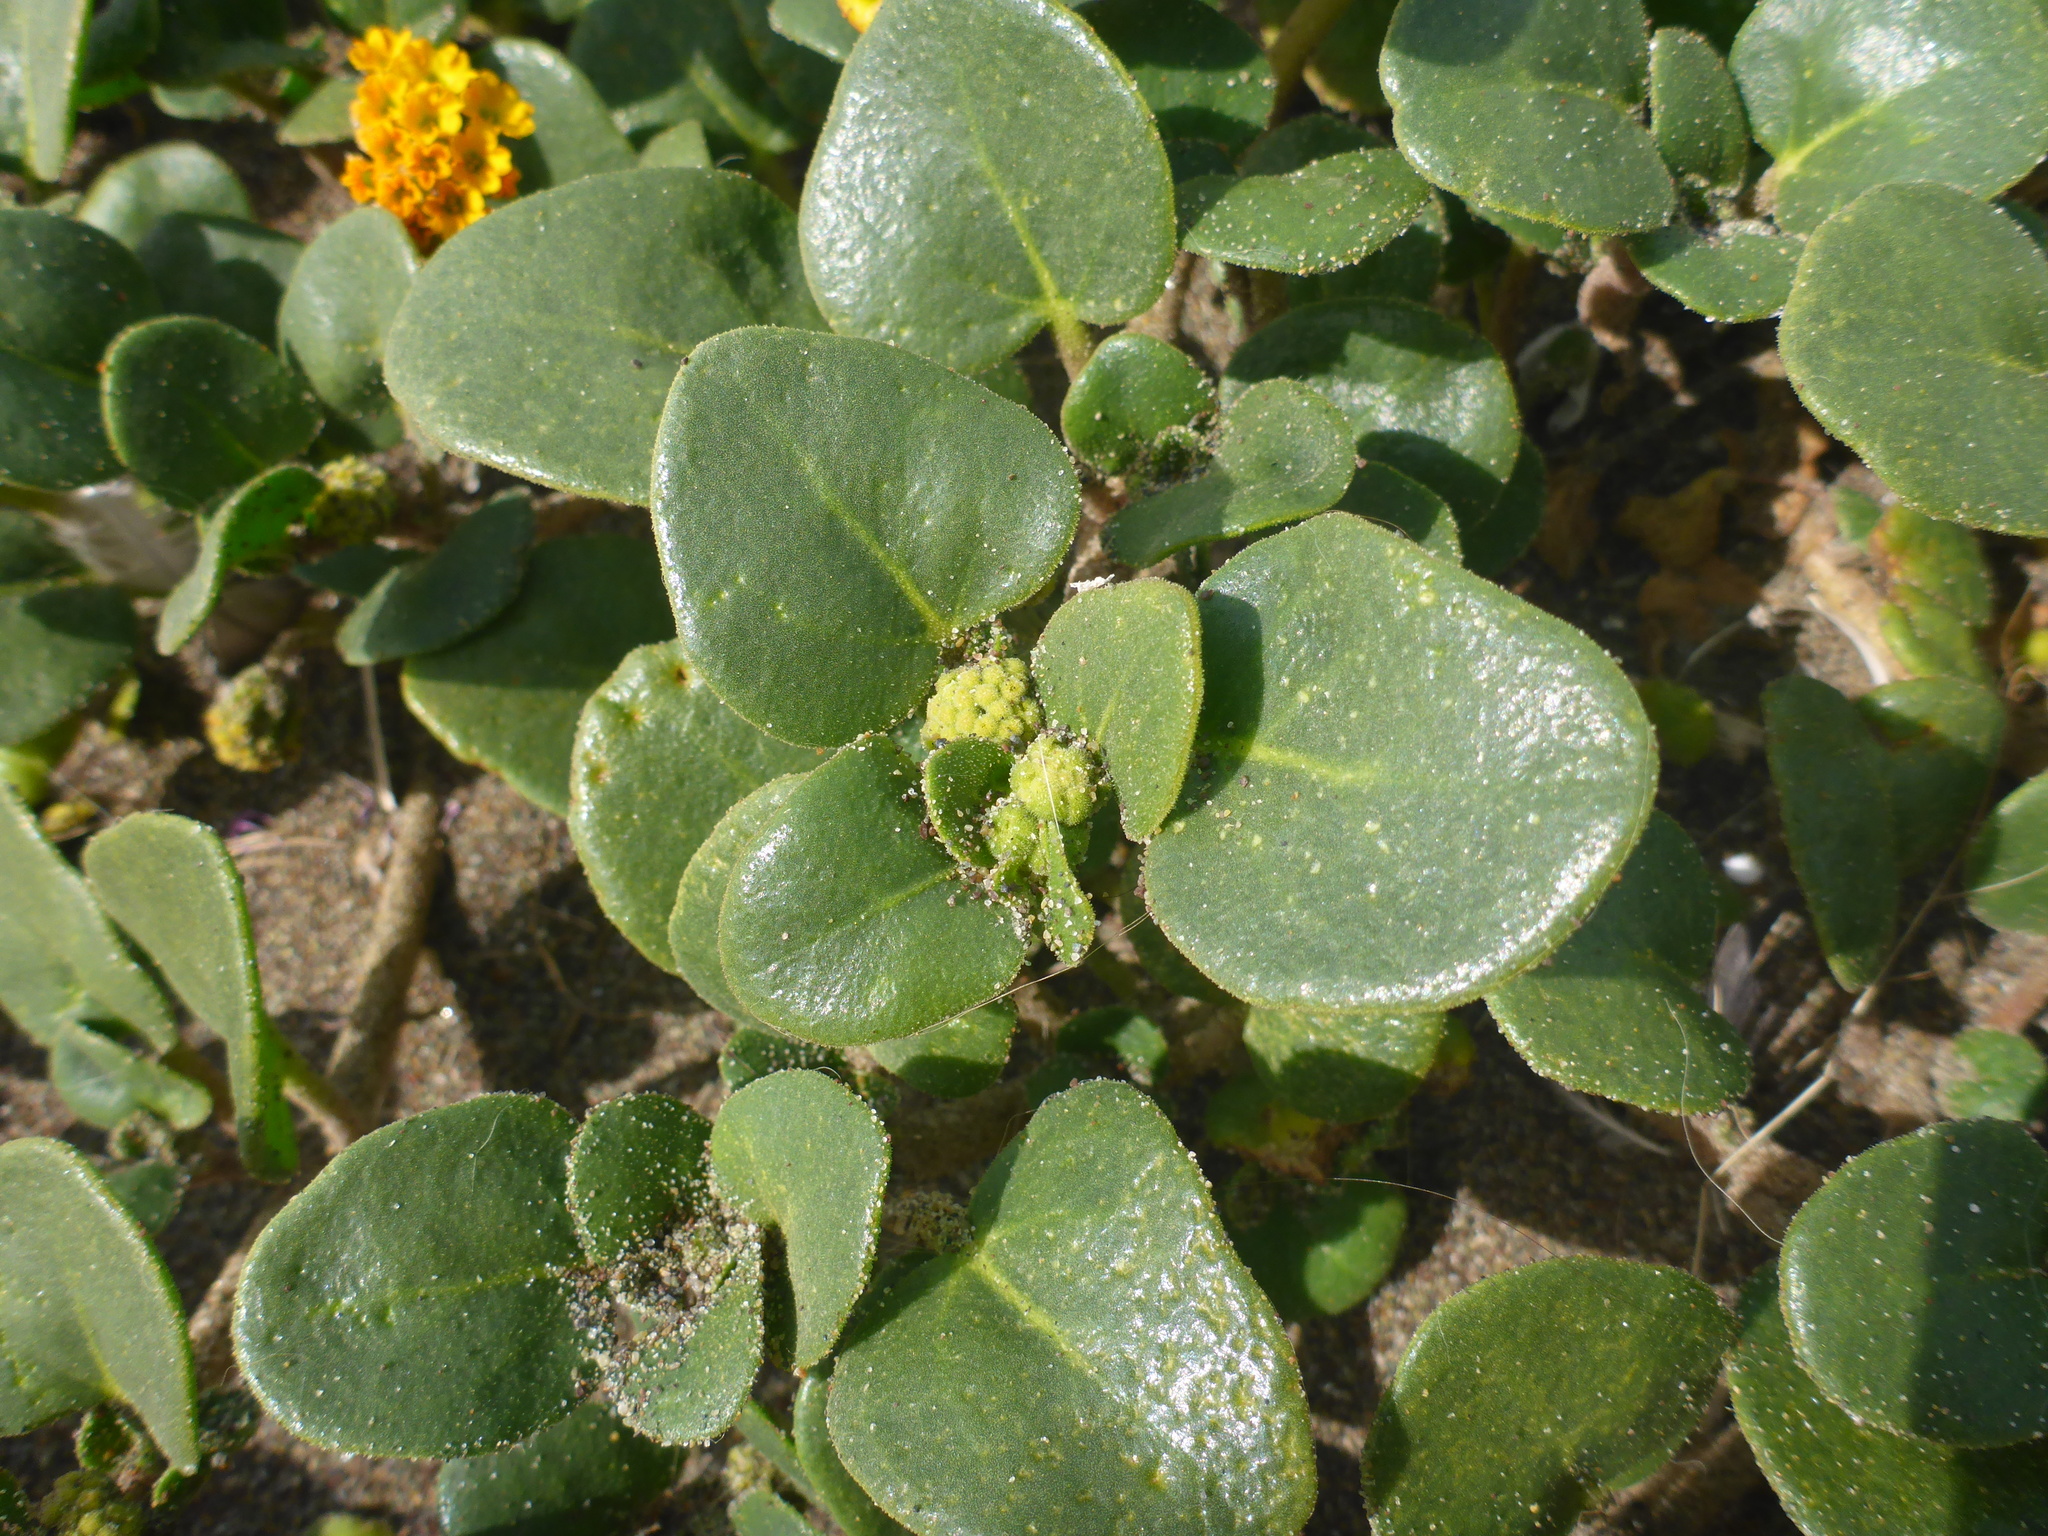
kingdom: Plantae
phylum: Tracheophyta
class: Magnoliopsida
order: Caryophyllales
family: Nyctaginaceae
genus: Abronia
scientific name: Abronia latifolia
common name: Yellow sand-verbena
